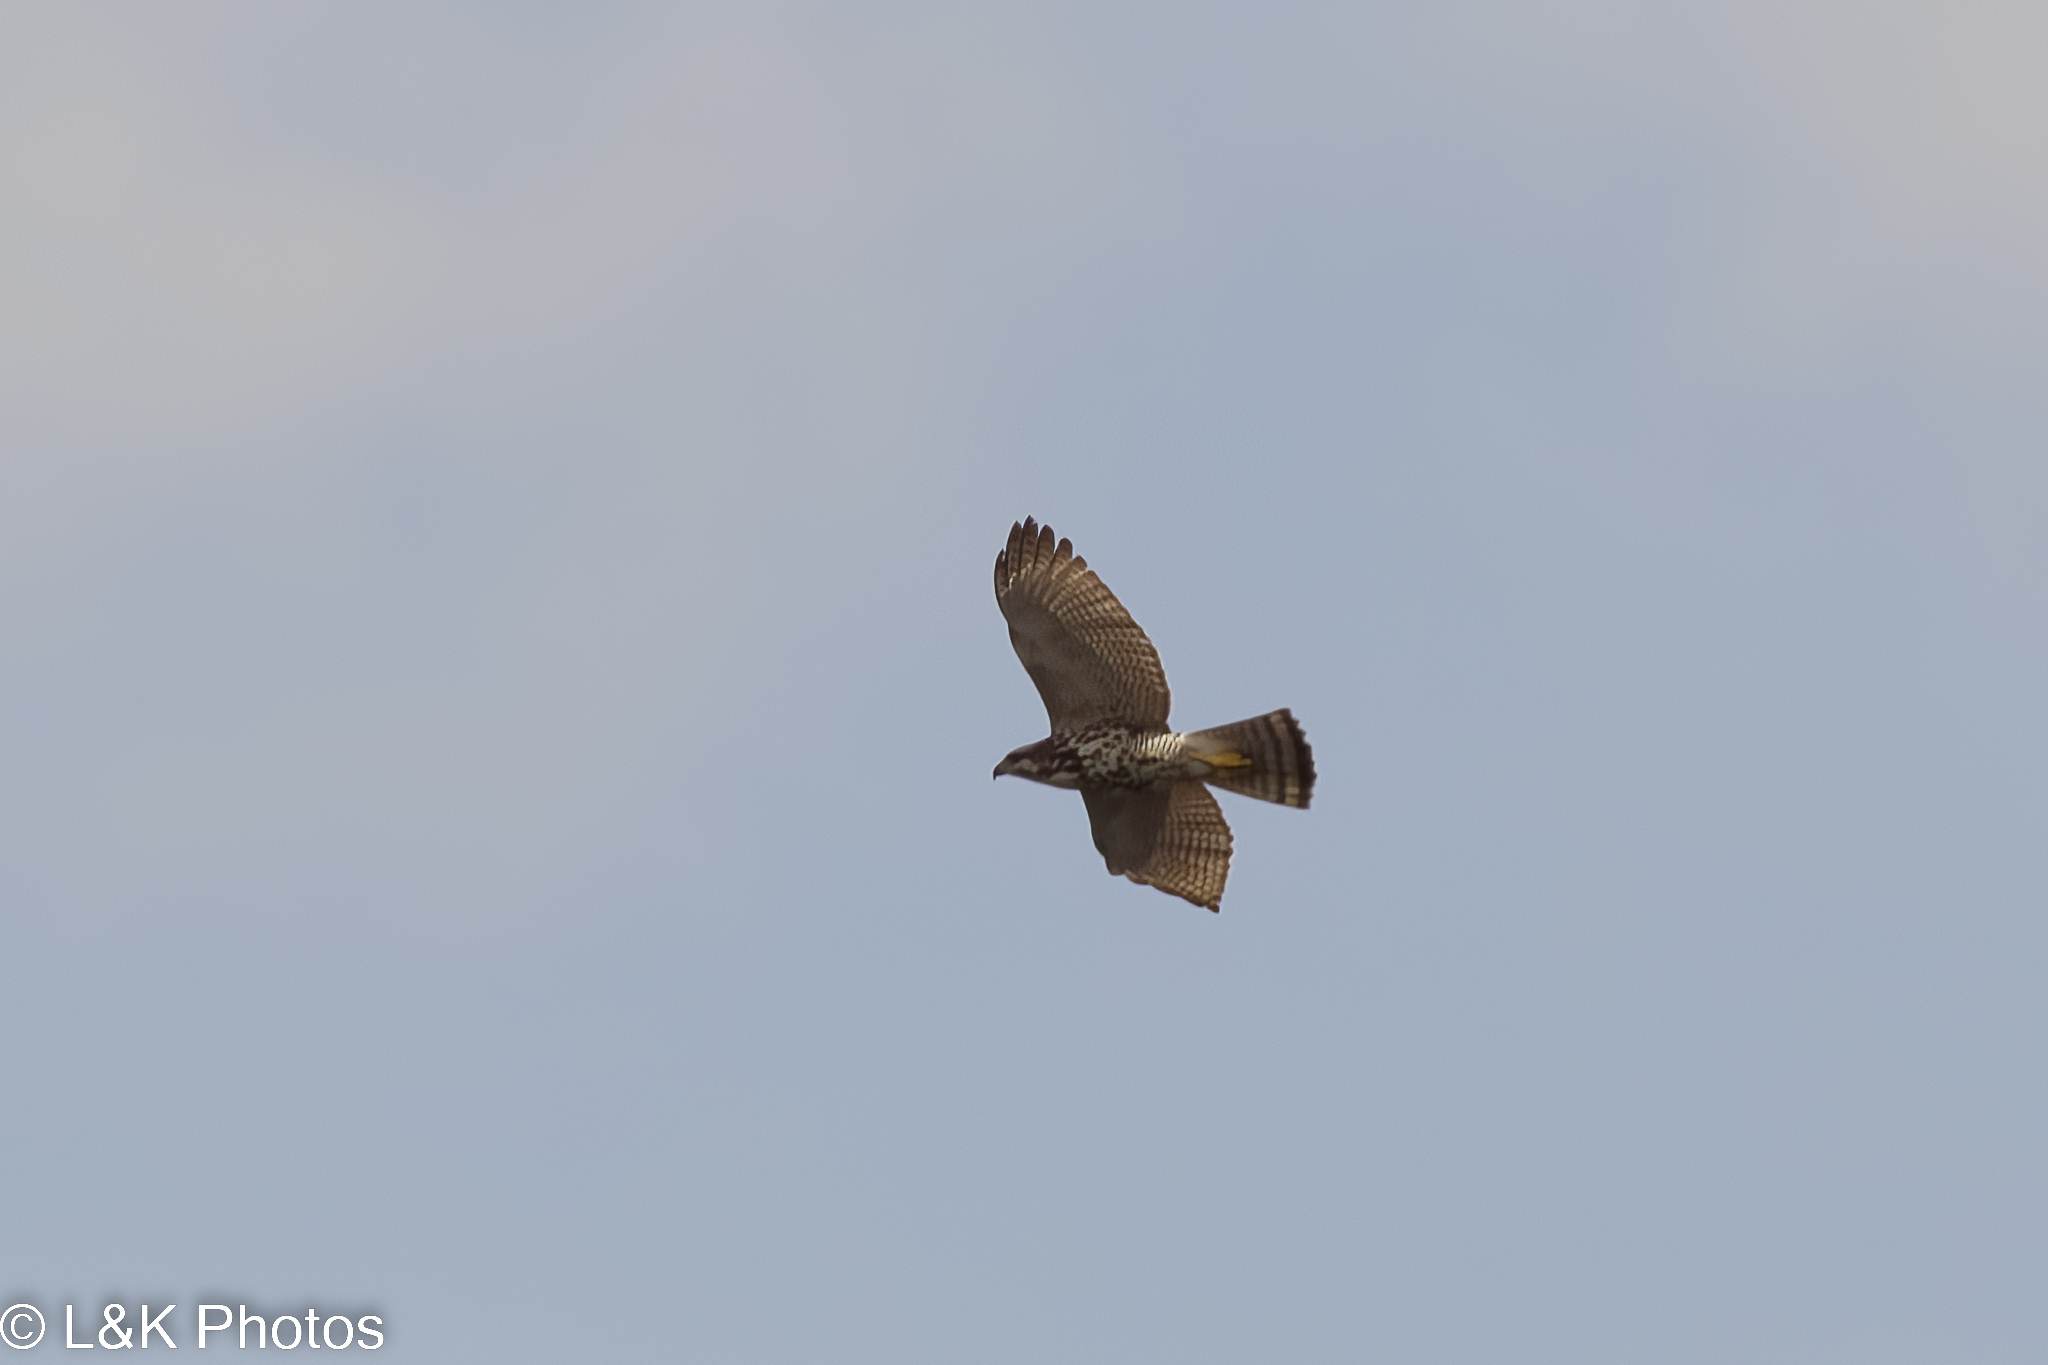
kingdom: Animalia
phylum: Chordata
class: Aves
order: Accipitriformes
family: Accipitridae
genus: Buteo
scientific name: Buteo nitidus
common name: Grey-lined hawk
